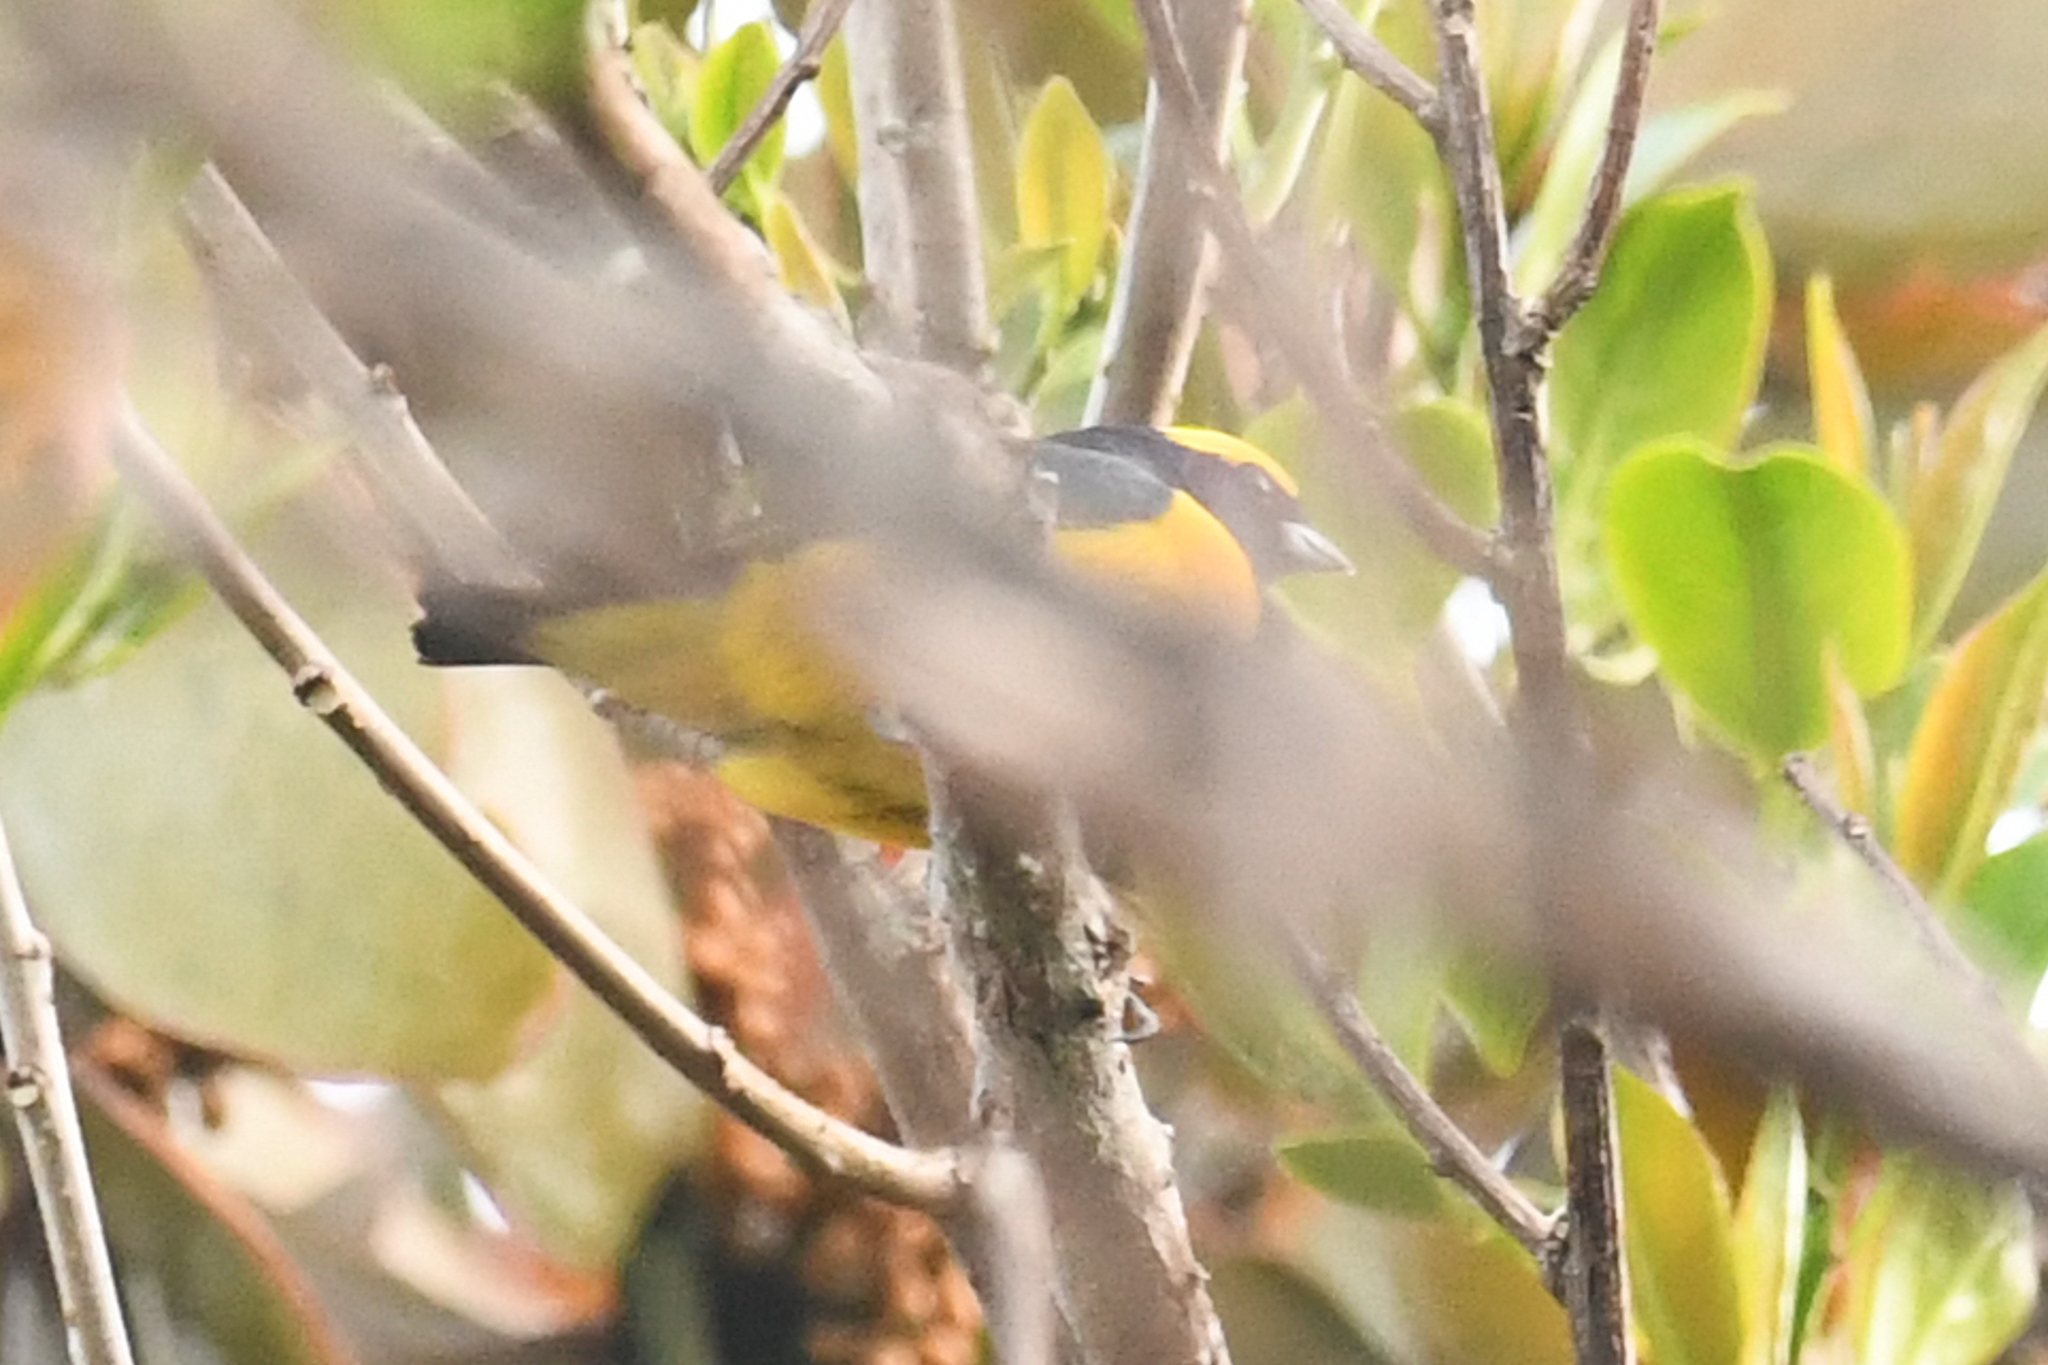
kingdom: Animalia
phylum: Chordata
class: Aves
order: Passeriformes
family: Fringillidae
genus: Euphonia
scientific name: Euphonia luteicapilla
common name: Yellow-crowned euphonia
